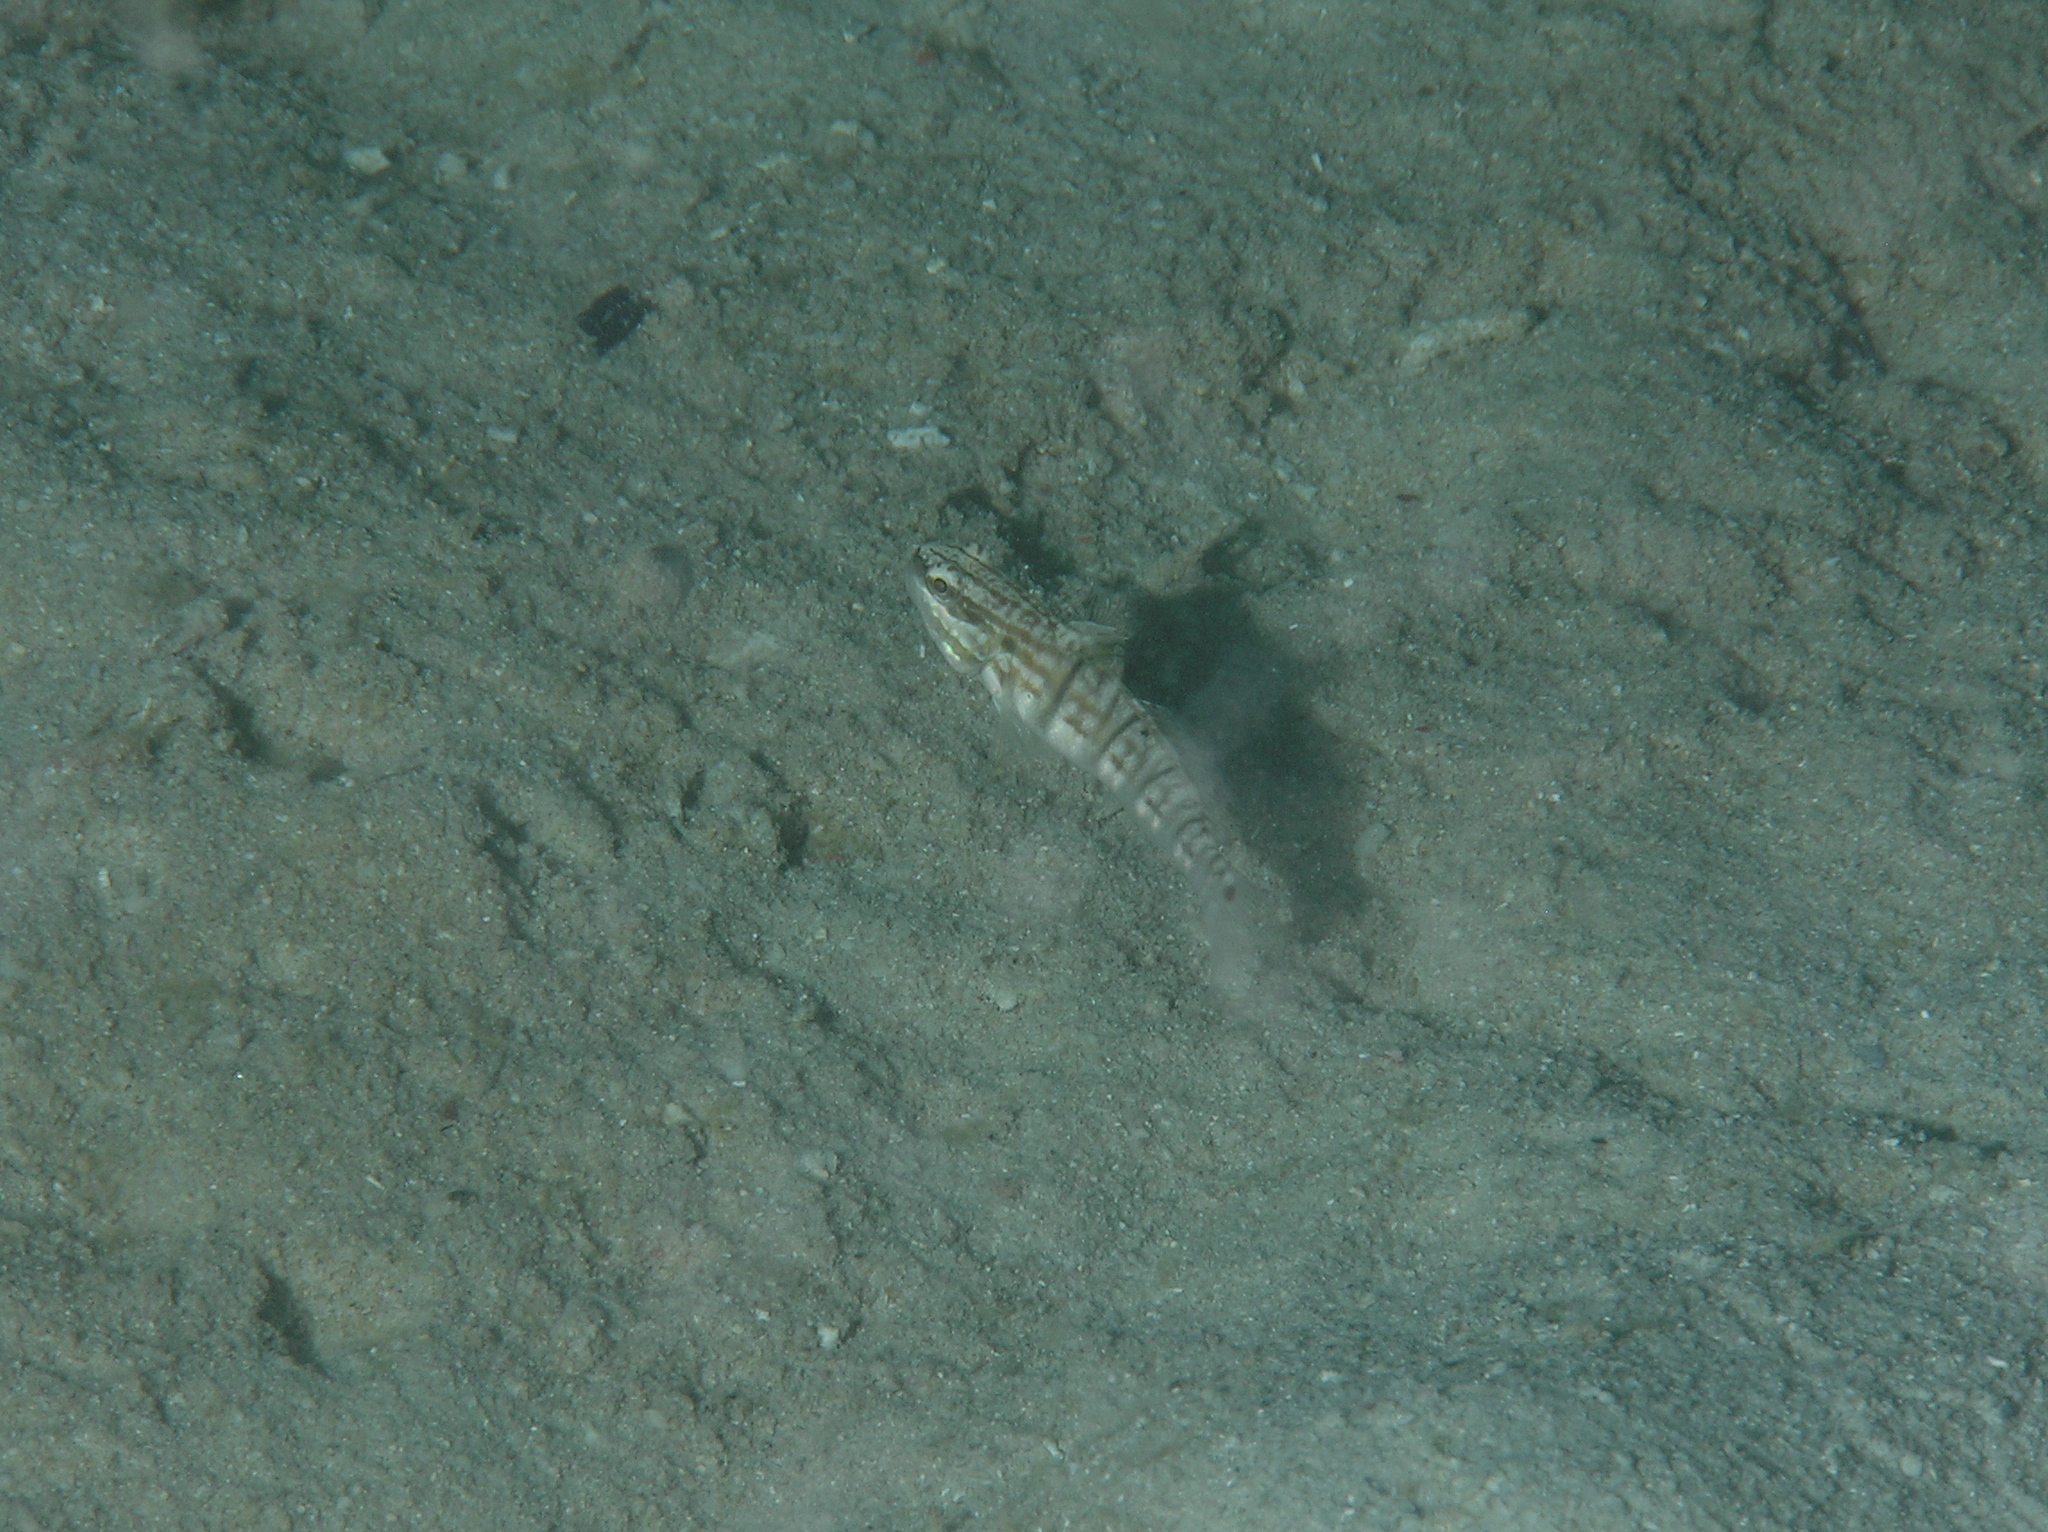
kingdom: Animalia
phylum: Chordata
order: Perciformes
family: Gobiidae
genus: Amblygobius
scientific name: Amblygobius phalaena
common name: Banded goby
